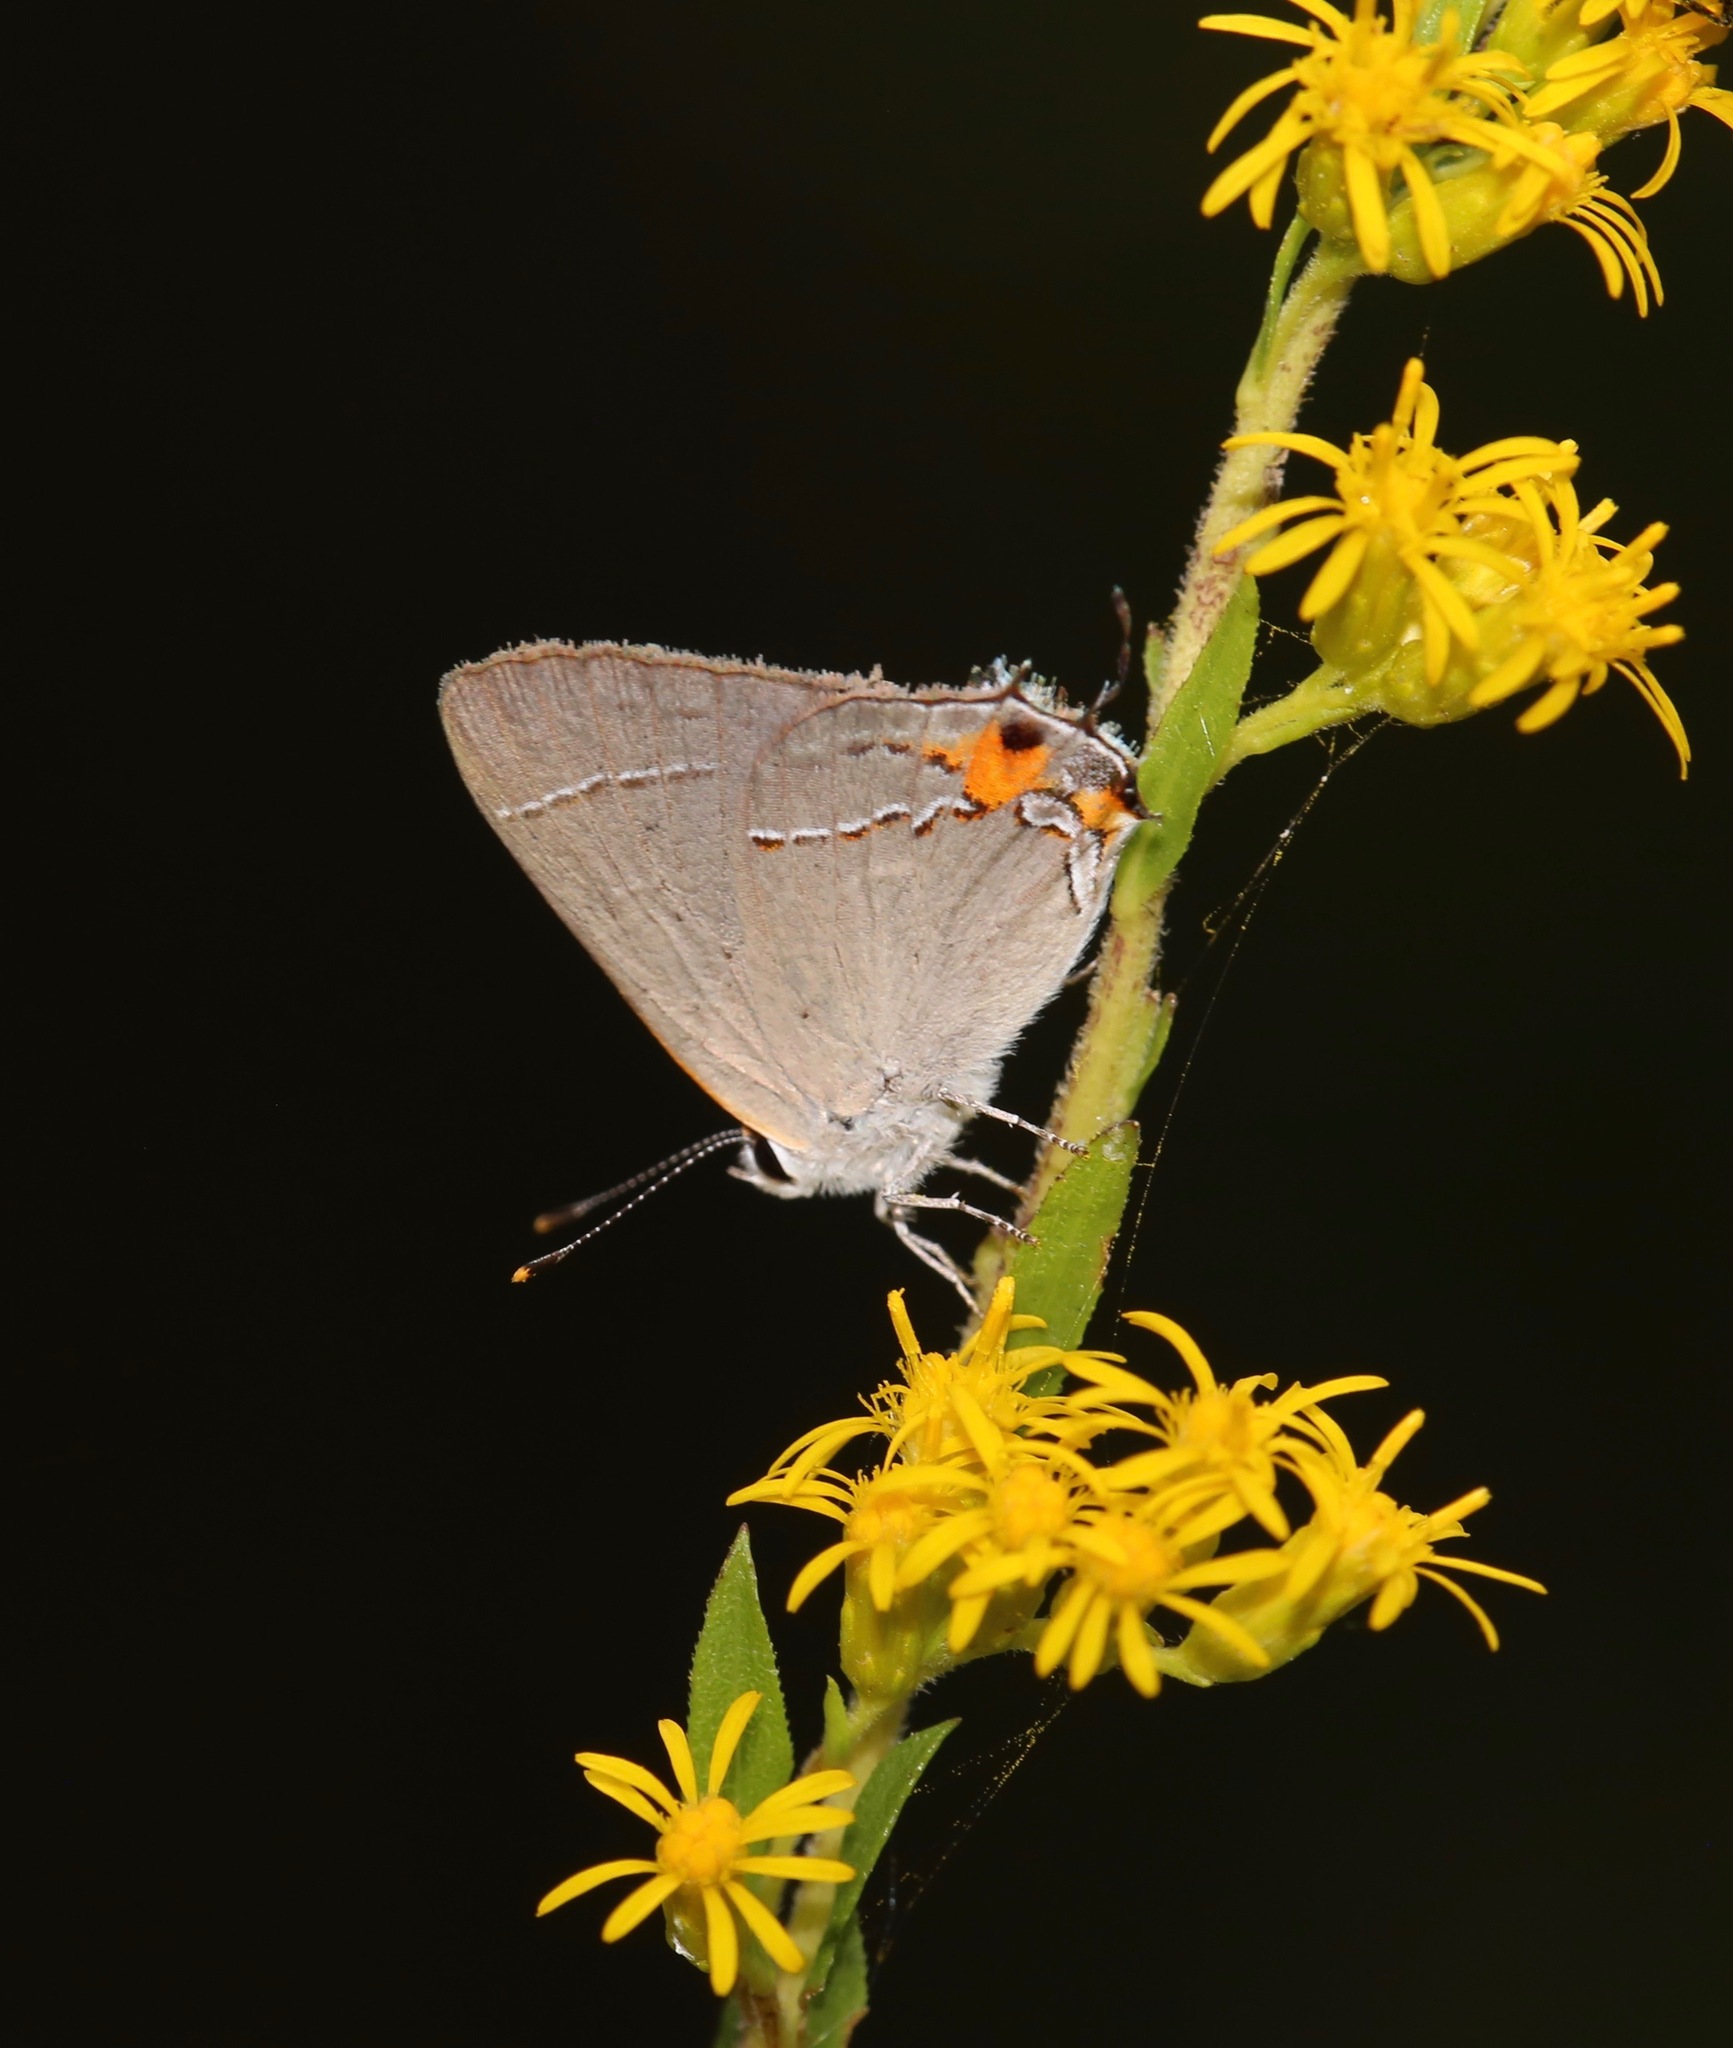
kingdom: Animalia
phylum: Arthropoda
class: Insecta
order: Lepidoptera
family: Lycaenidae
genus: Strymon
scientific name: Strymon melinus
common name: Gray hairstreak
